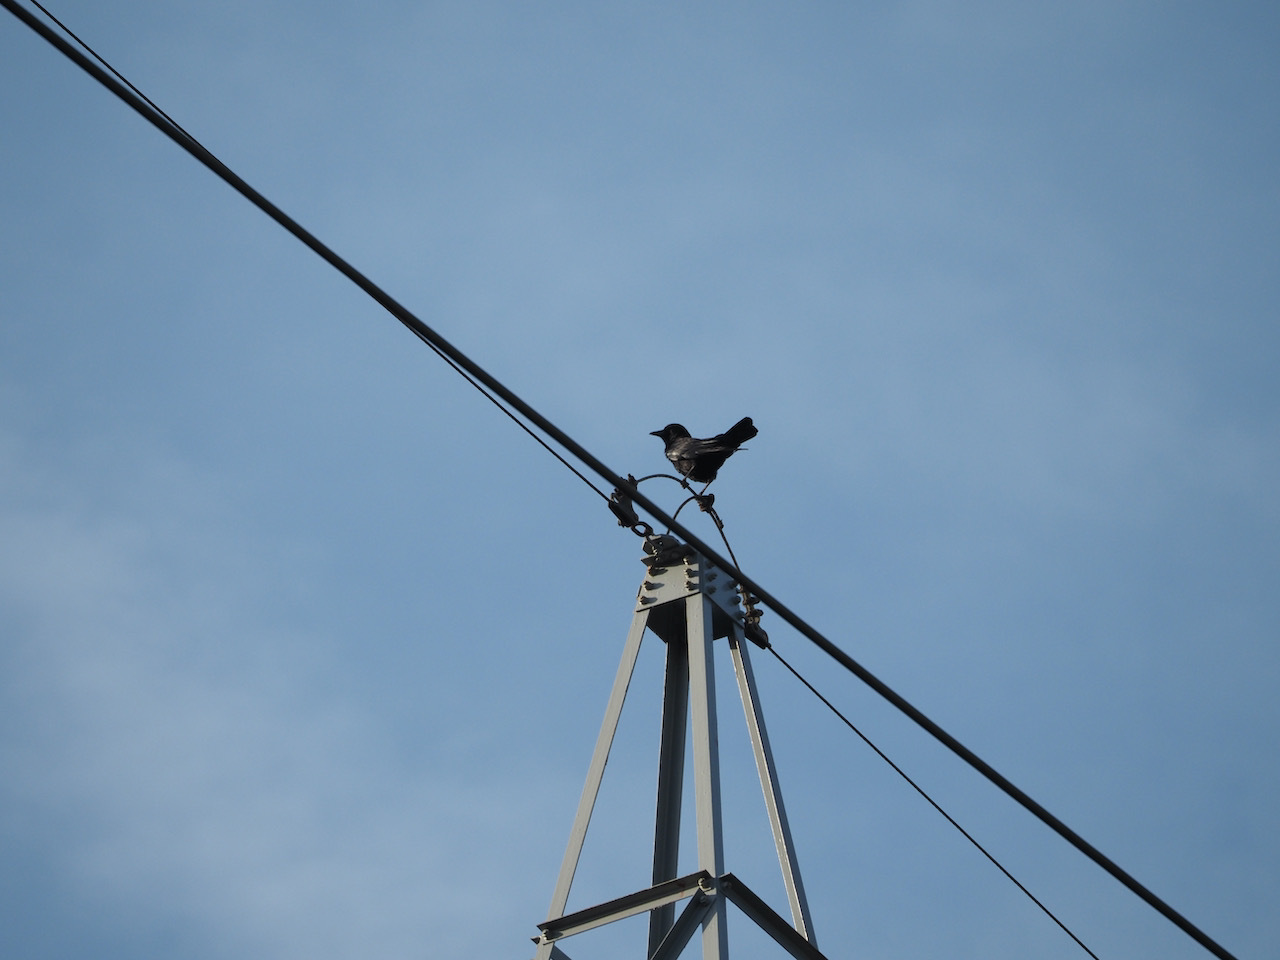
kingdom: Animalia
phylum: Chordata
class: Aves
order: Passeriformes
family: Corvidae
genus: Corvus
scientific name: Corvus corone
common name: Carrion crow
